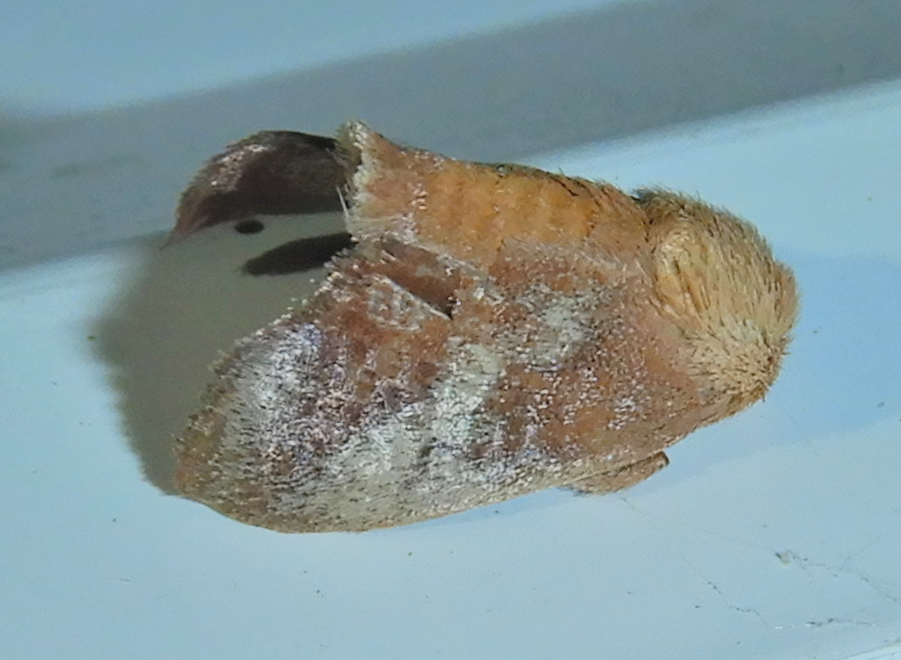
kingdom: Animalia
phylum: Arthropoda
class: Insecta
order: Lepidoptera
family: Limacodidae
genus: Isa
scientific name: Isa textula
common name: Crowned slug moth
